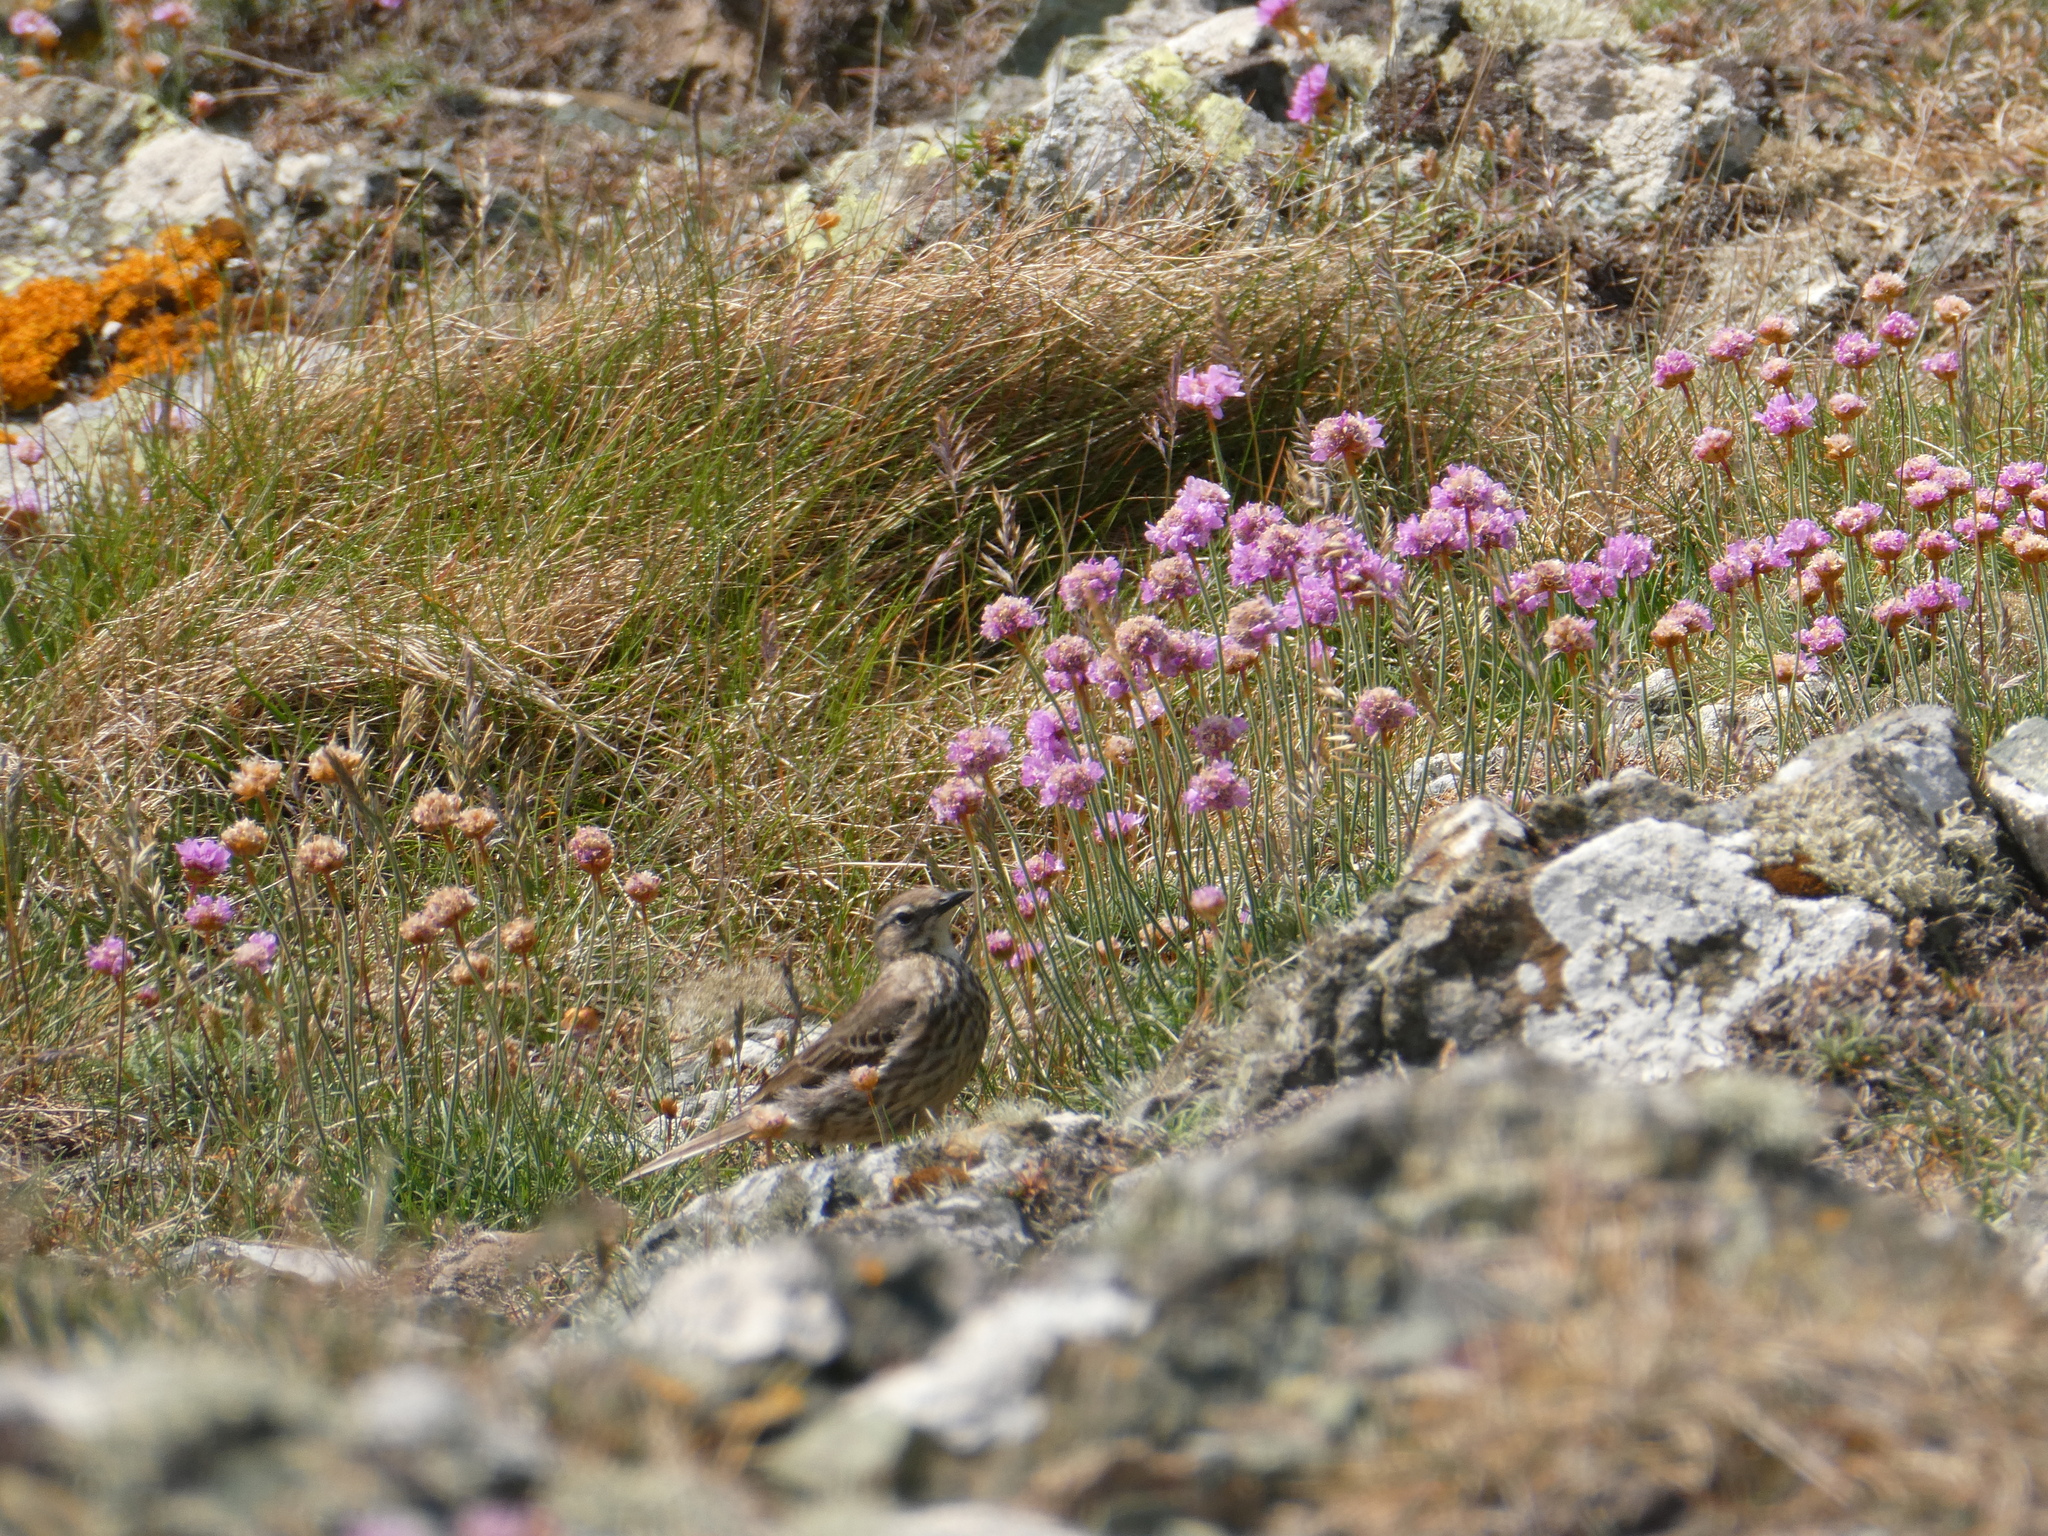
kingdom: Animalia
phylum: Chordata
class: Aves
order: Passeriformes
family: Motacillidae
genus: Anthus
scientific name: Anthus petrosus
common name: Eurasian rock pipit
